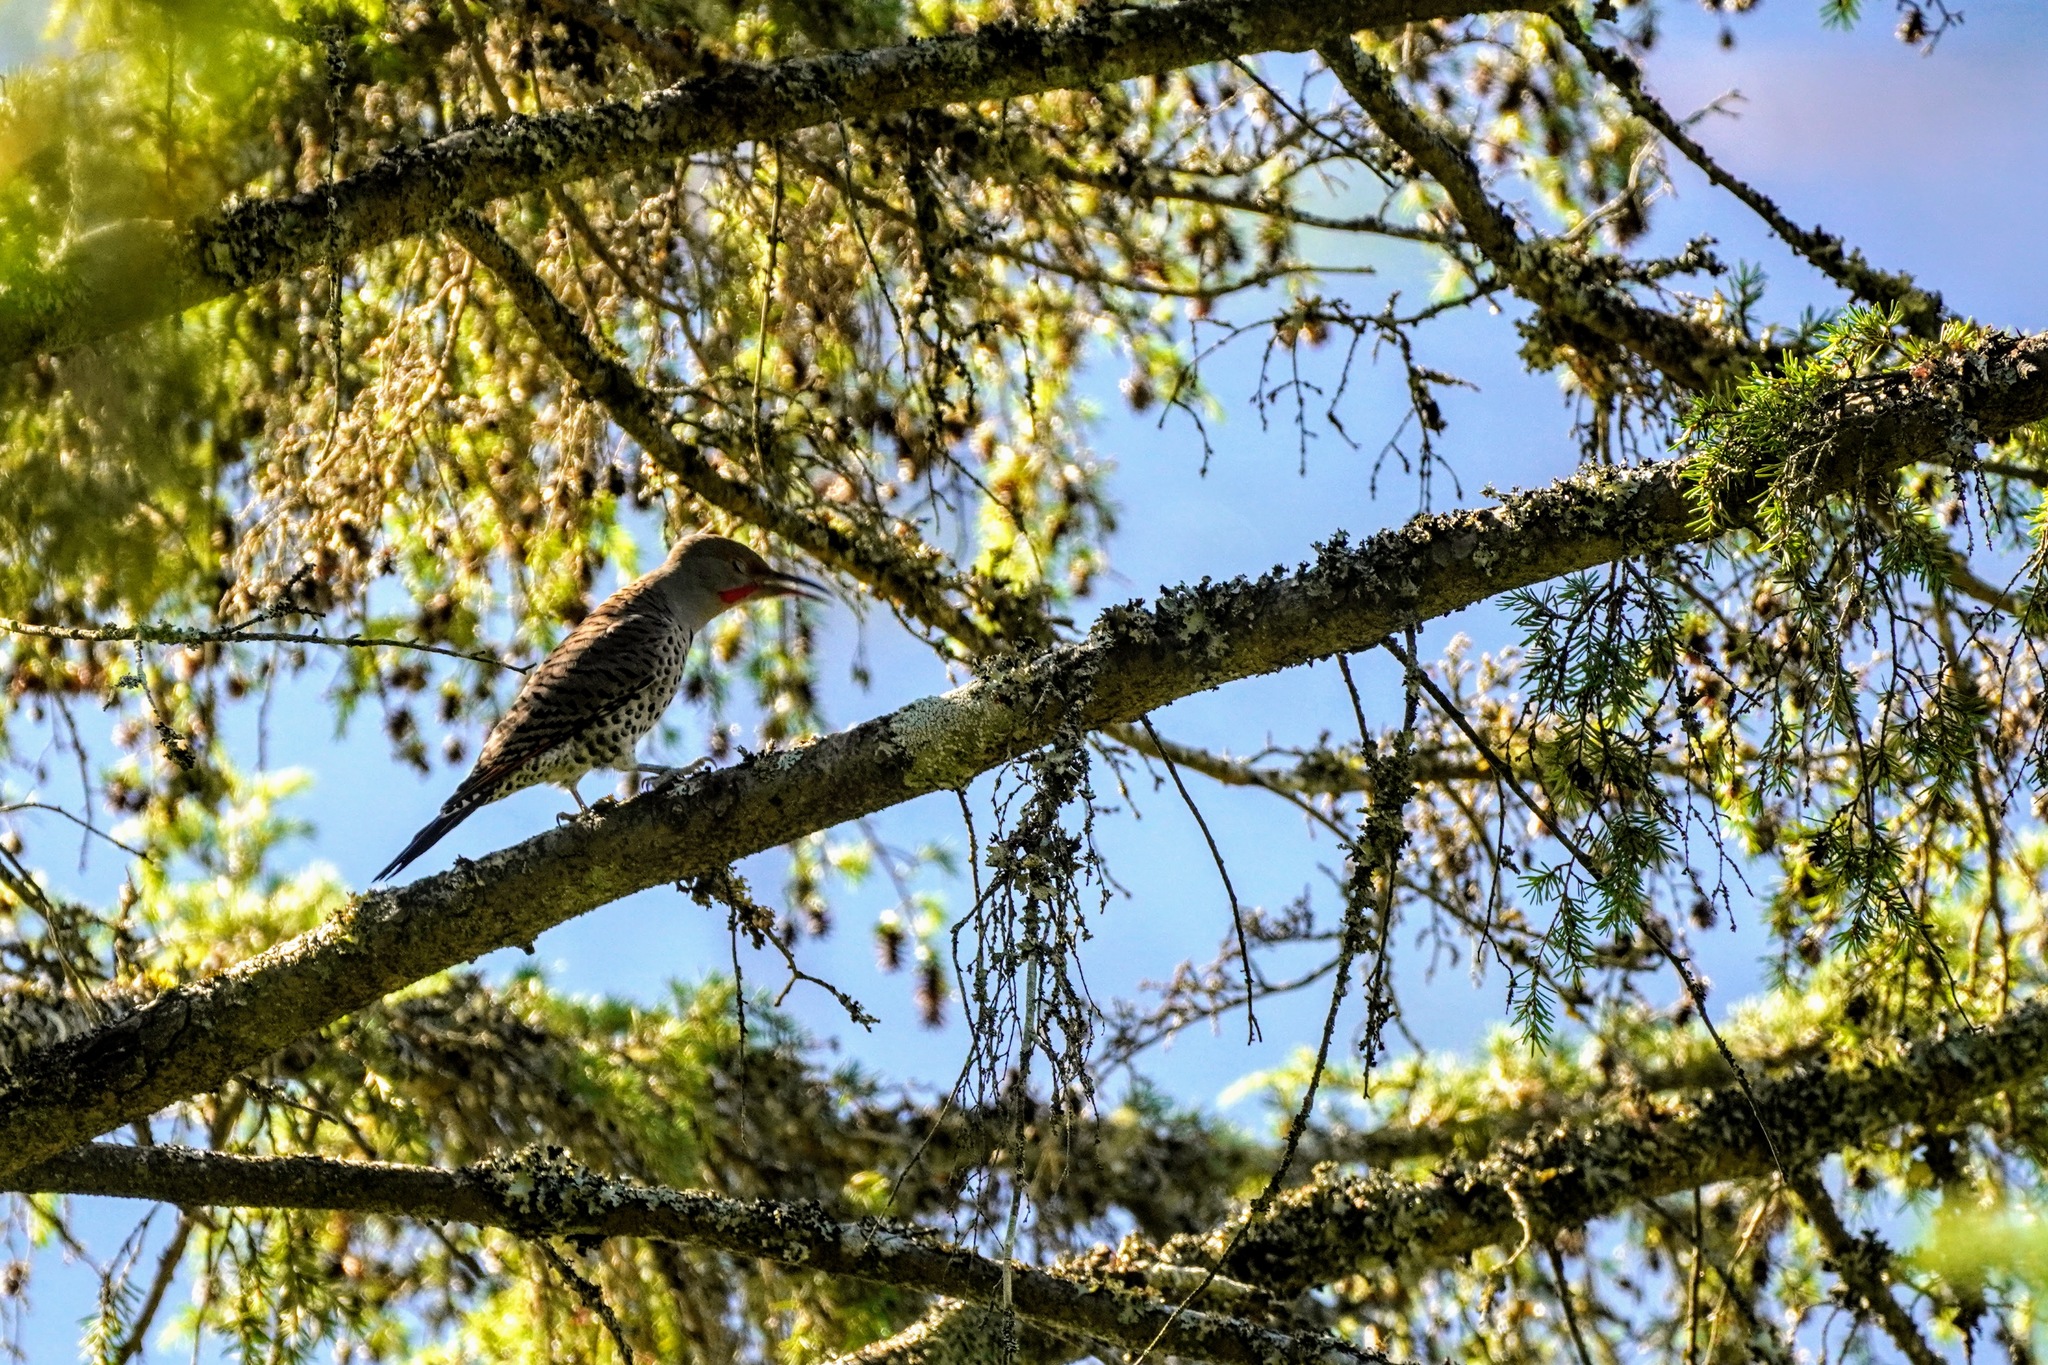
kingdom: Animalia
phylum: Chordata
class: Aves
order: Piciformes
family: Picidae
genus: Colaptes
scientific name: Colaptes auratus
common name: Northern flicker
